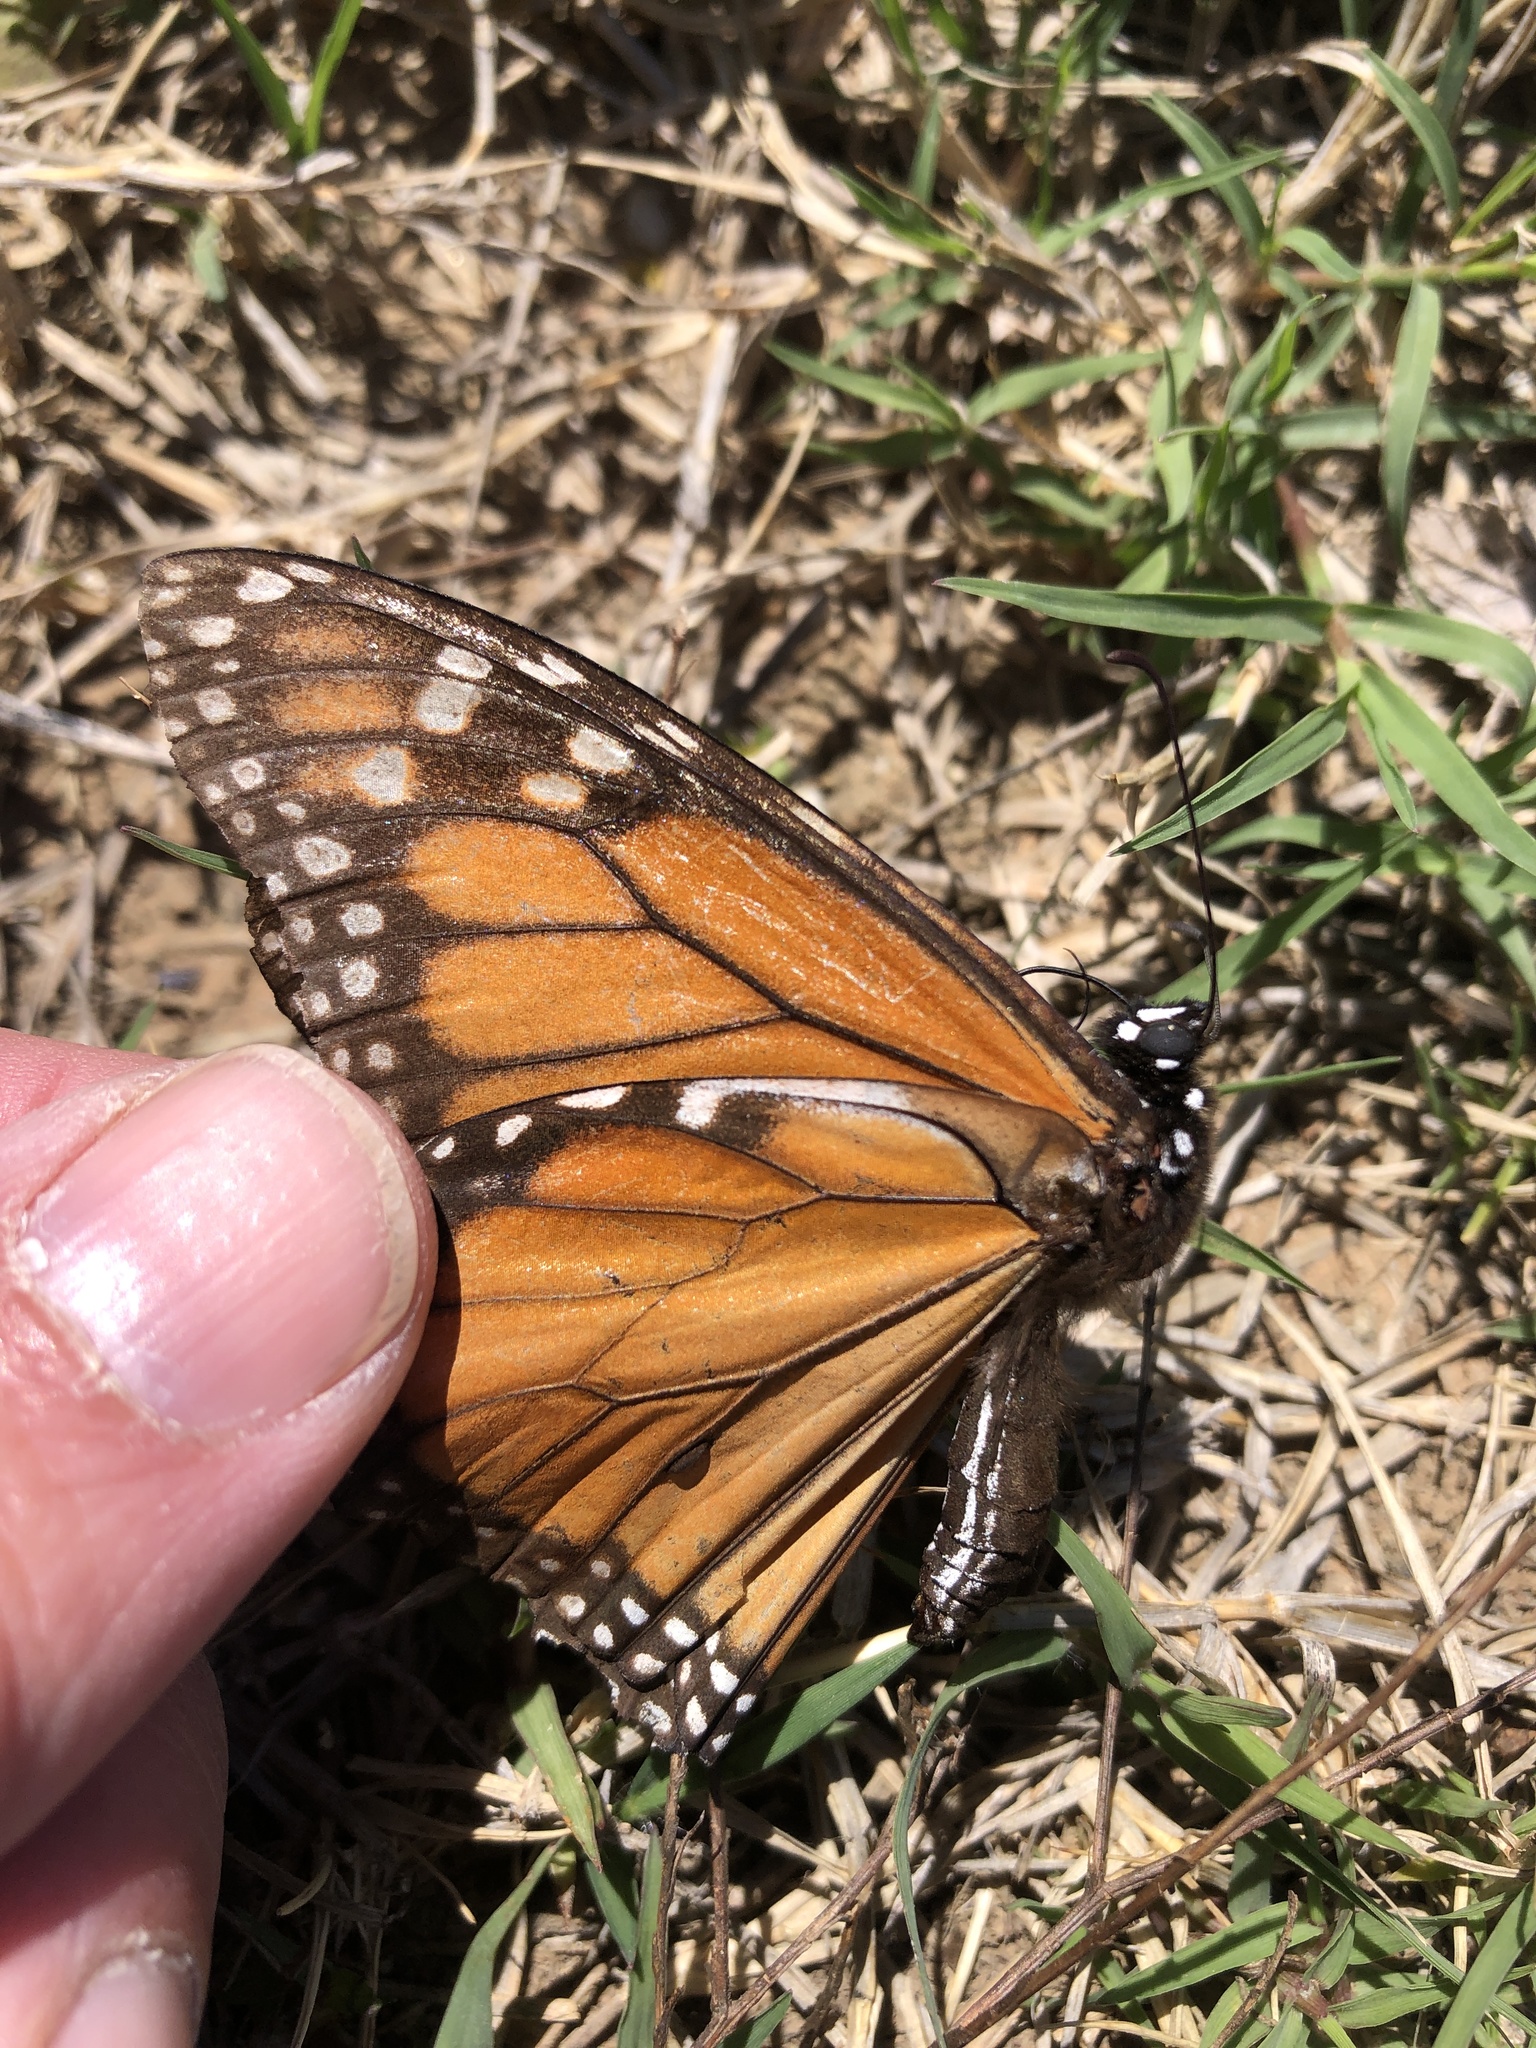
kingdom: Animalia
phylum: Arthropoda
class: Insecta
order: Lepidoptera
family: Nymphalidae
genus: Danaus
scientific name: Danaus plexippus
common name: Monarch
